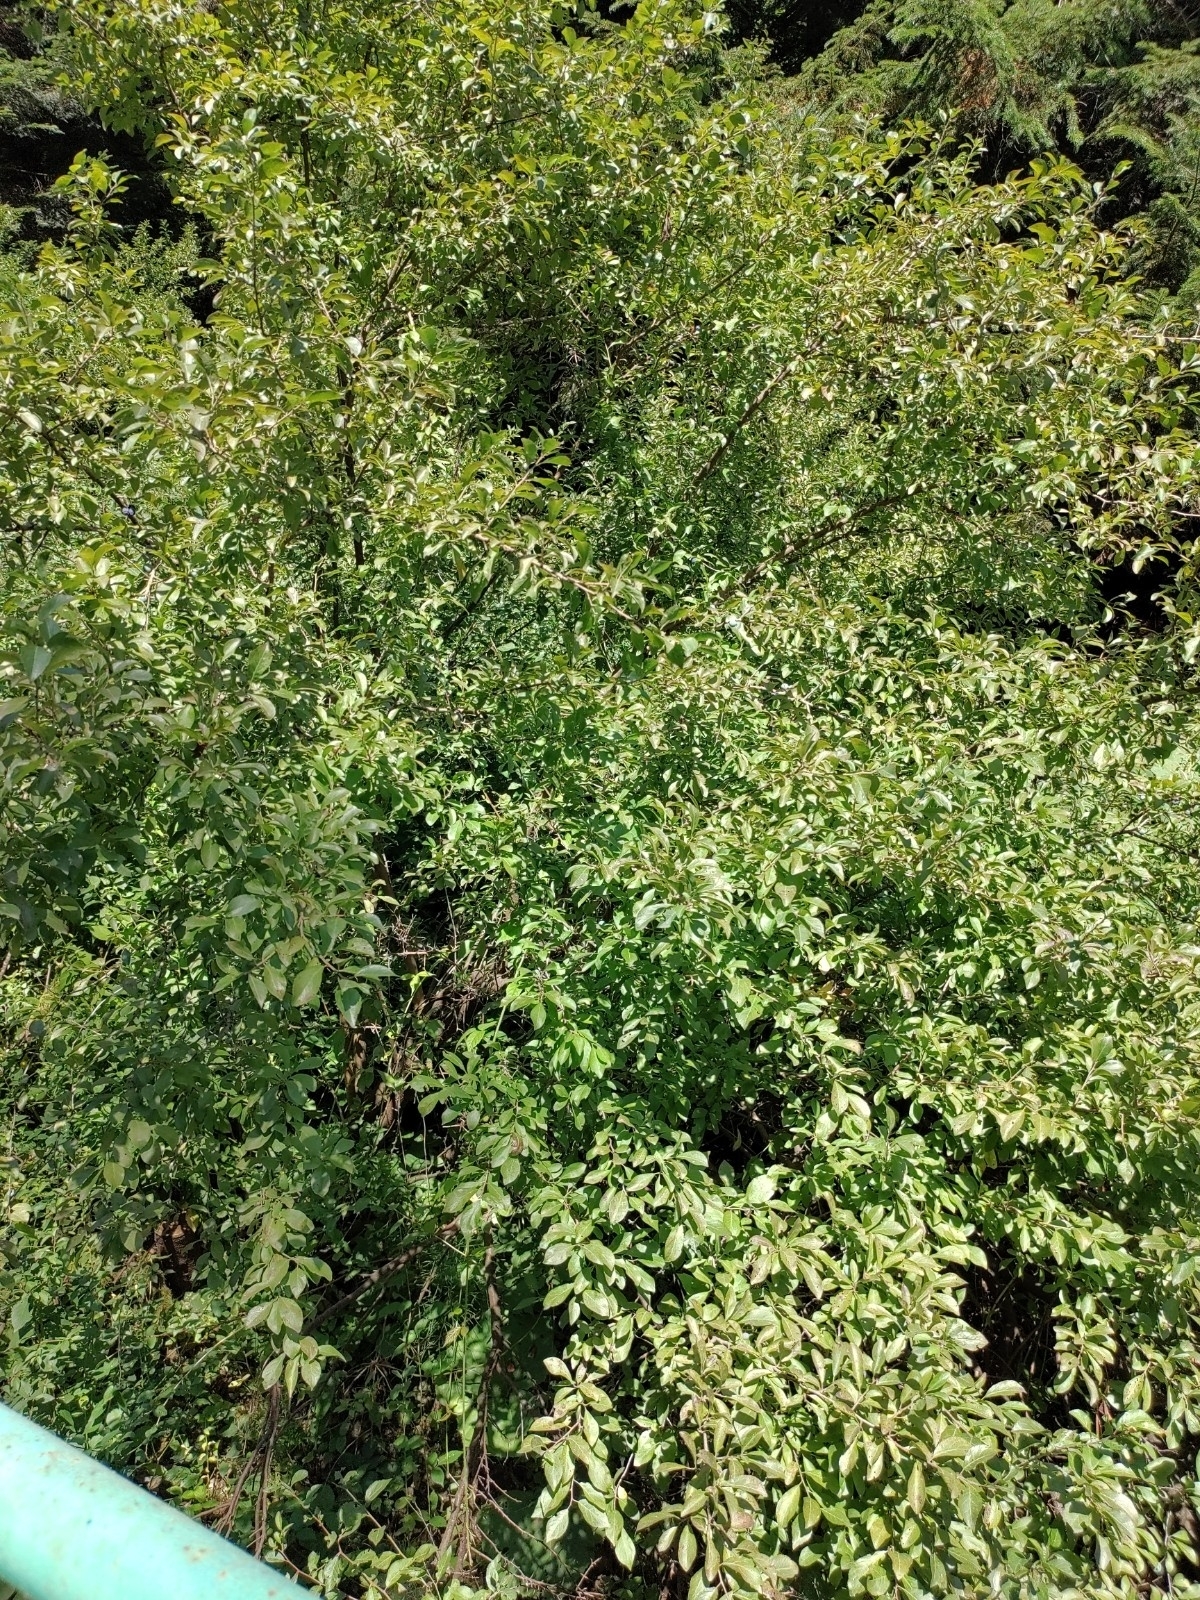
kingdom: Plantae
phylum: Tracheophyta
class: Magnoliopsida
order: Rosales
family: Rosaceae
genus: Prunus
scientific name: Prunus spinosa
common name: Blackthorn
